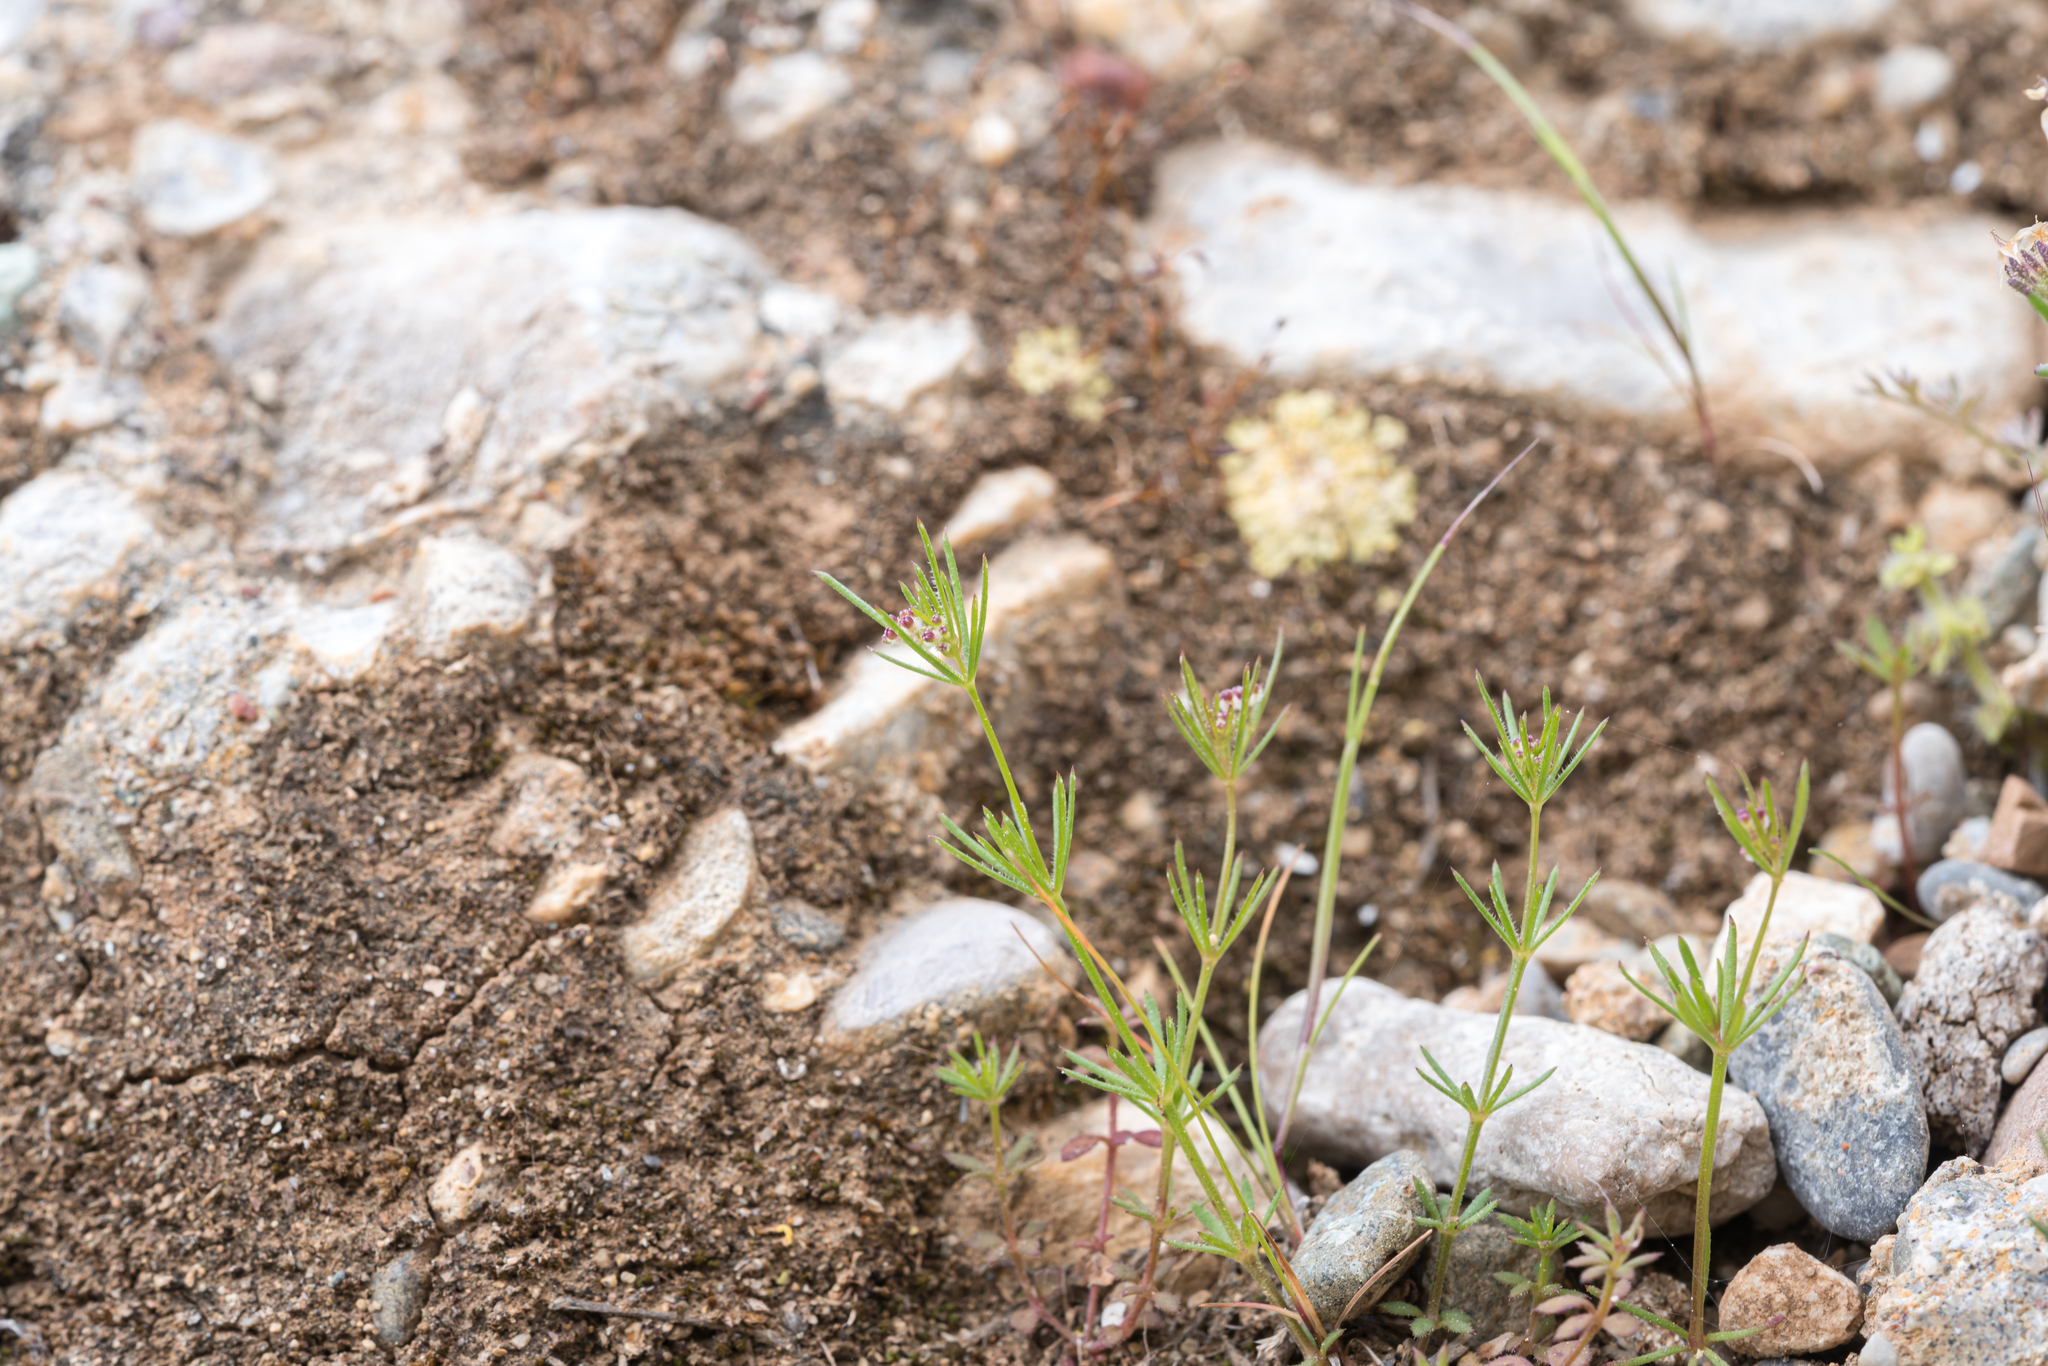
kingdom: Plantae
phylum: Tracheophyta
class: Magnoliopsida
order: Gentianales
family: Rubiaceae
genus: Galium
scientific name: Galium setaceum
